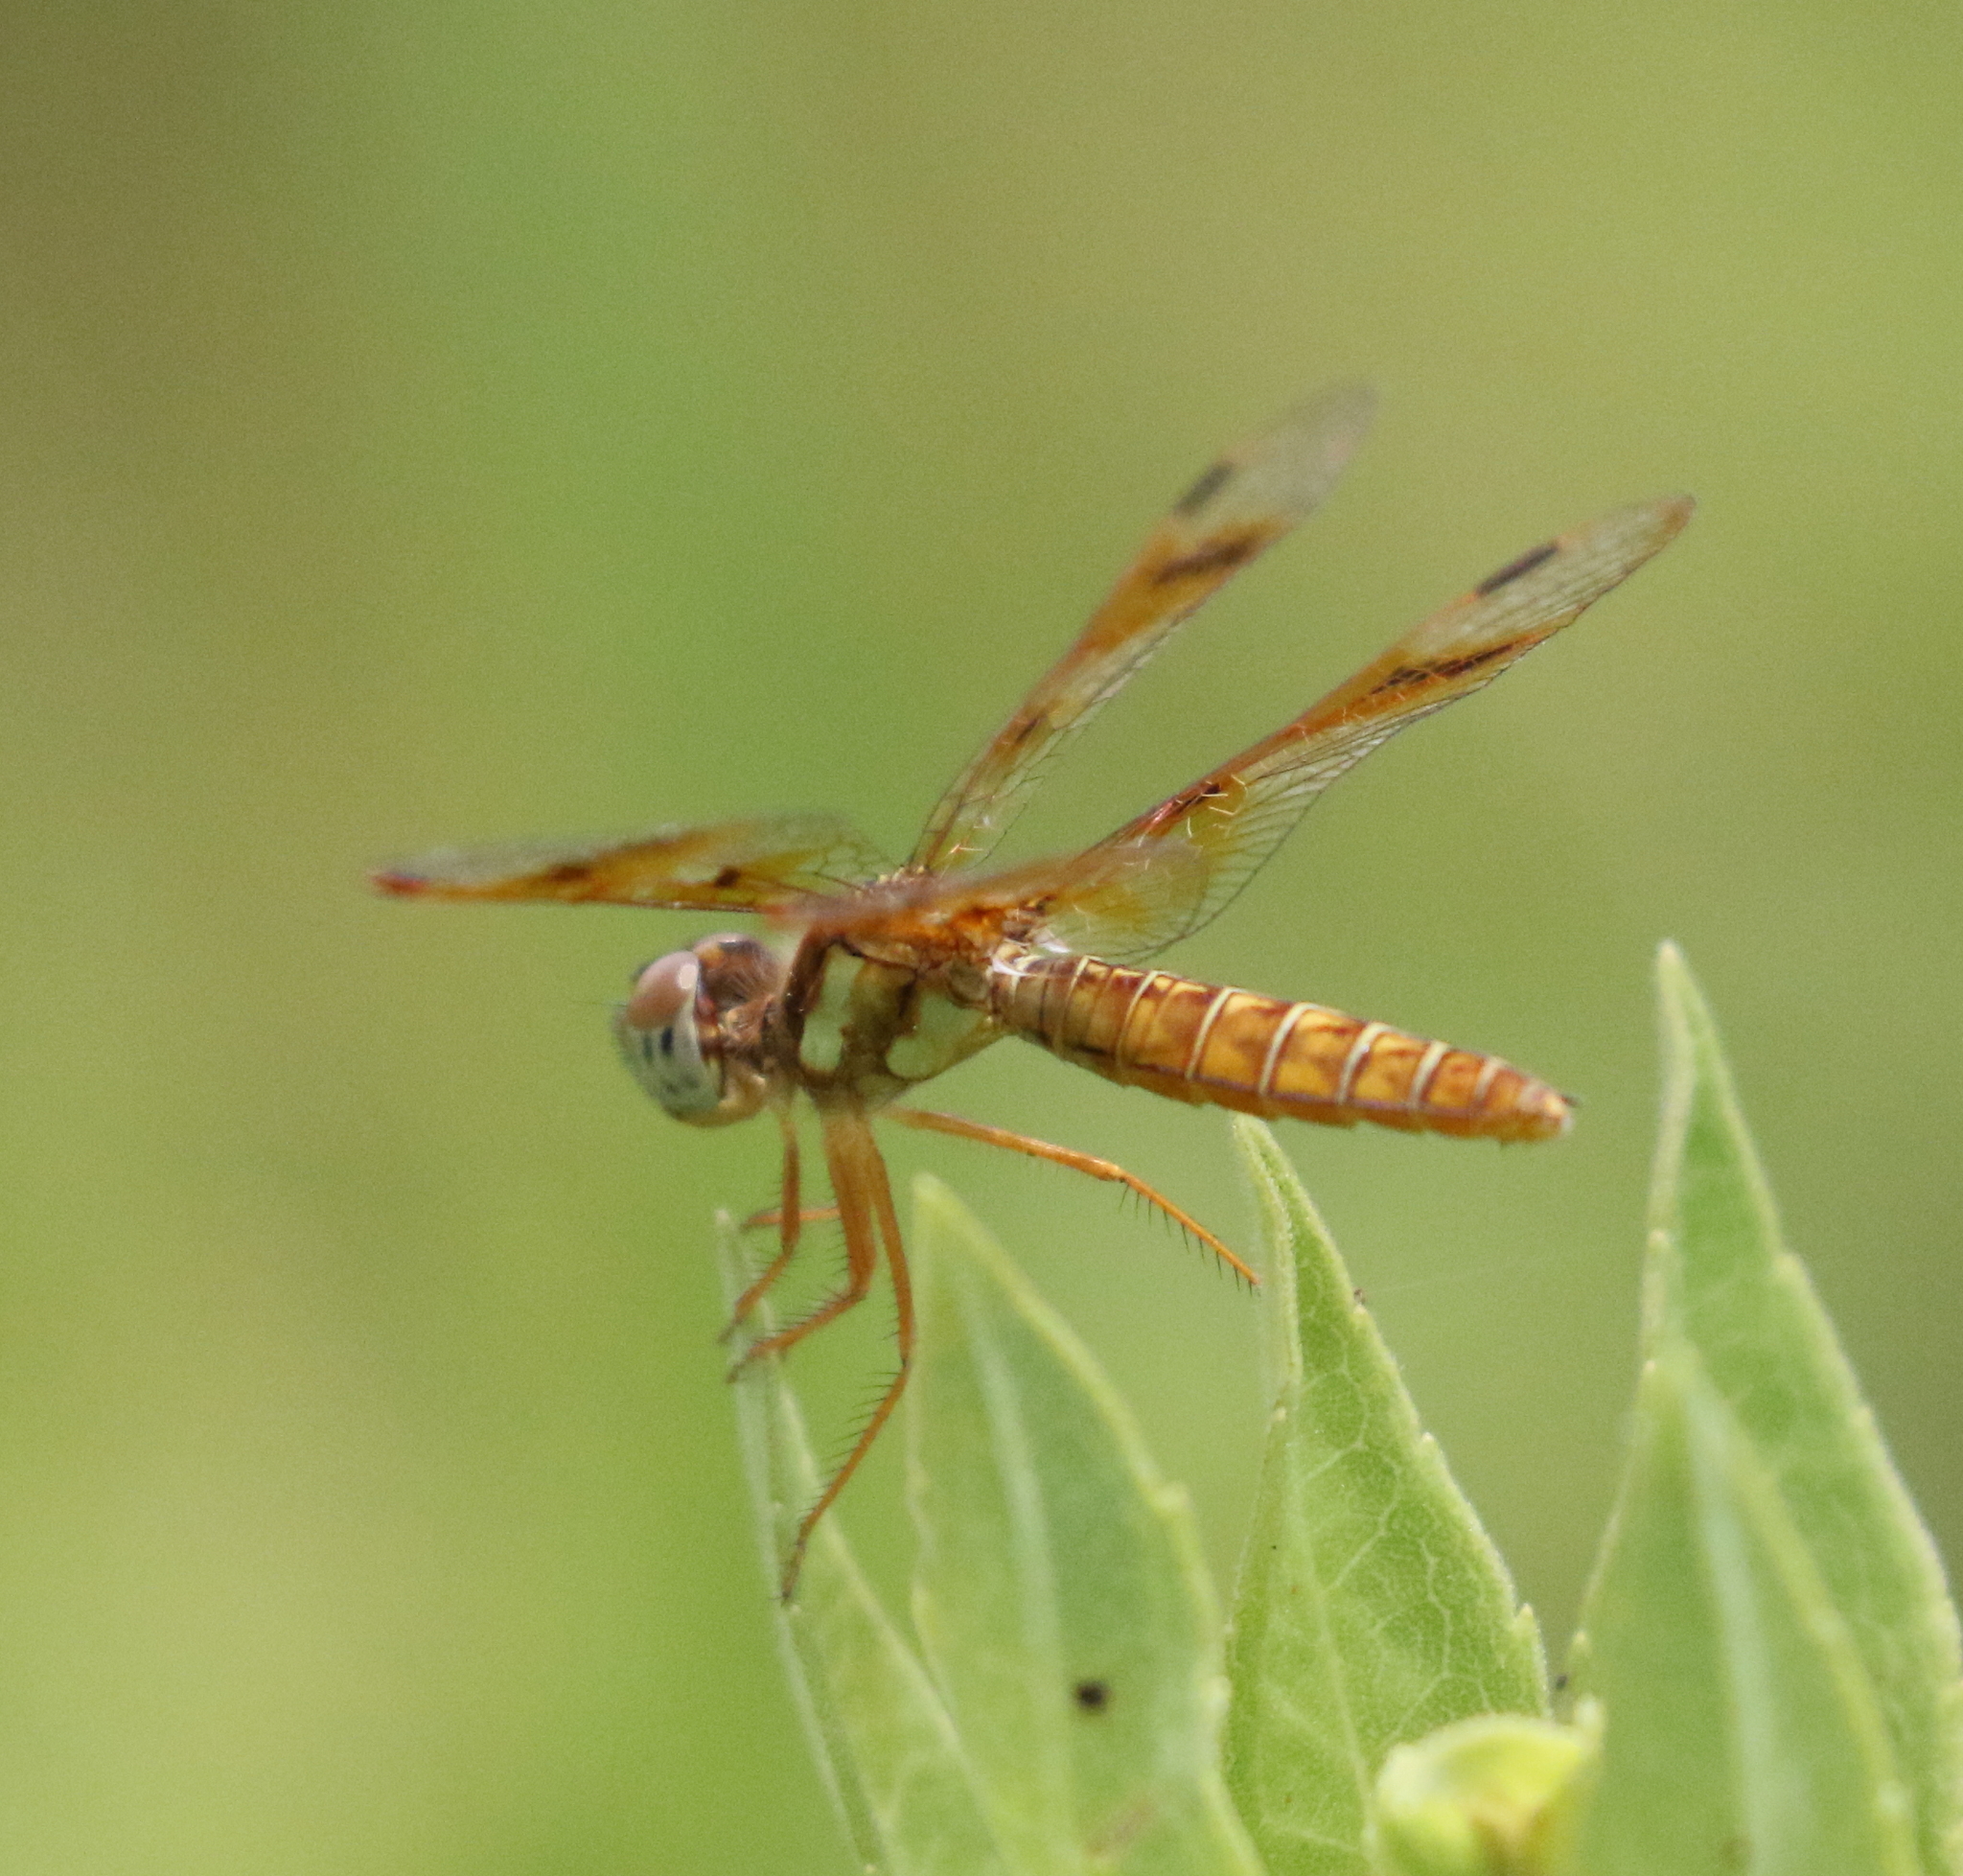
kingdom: Animalia
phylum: Arthropoda
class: Insecta
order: Odonata
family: Libellulidae
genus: Perithemis
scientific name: Perithemis tenera
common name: Eastern amberwing
